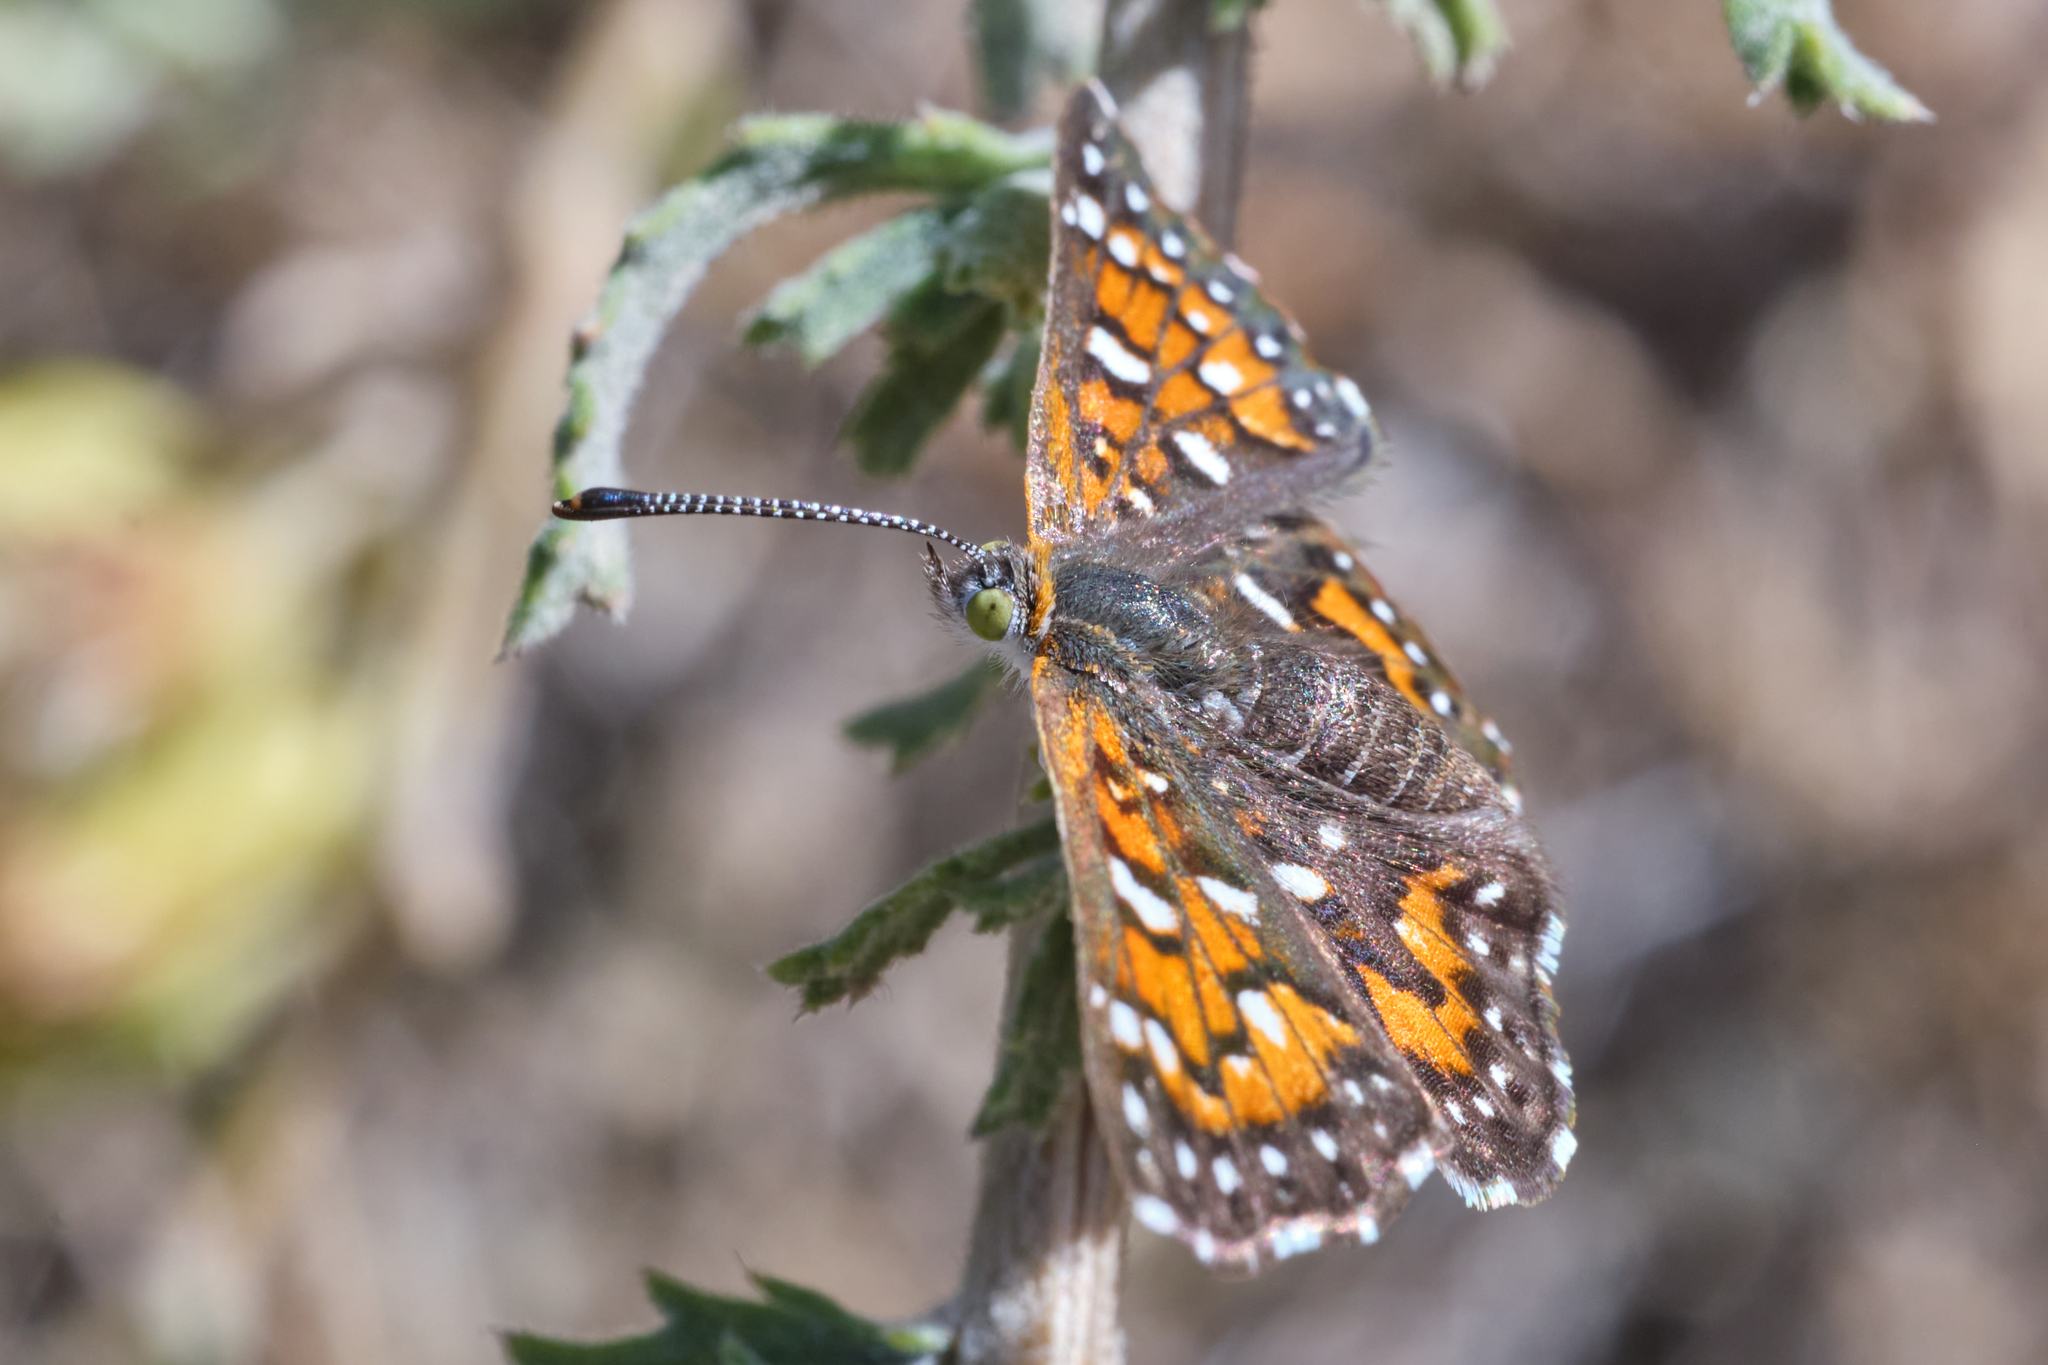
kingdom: Animalia
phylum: Arthropoda
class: Insecta
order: Lepidoptera
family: Riodinidae
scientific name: Riodinidae
